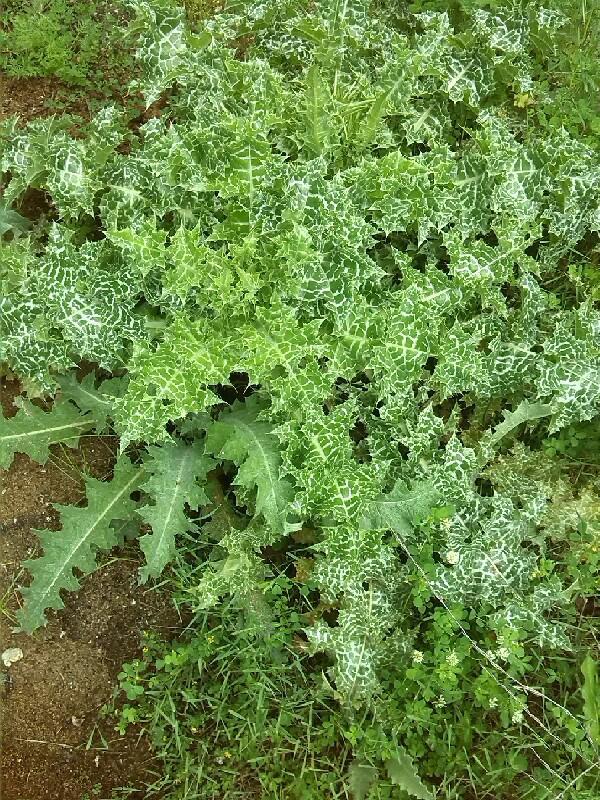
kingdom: Plantae
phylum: Tracheophyta
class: Magnoliopsida
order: Asterales
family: Asteraceae
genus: Silybum
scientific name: Silybum marianum
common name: Milk thistle
